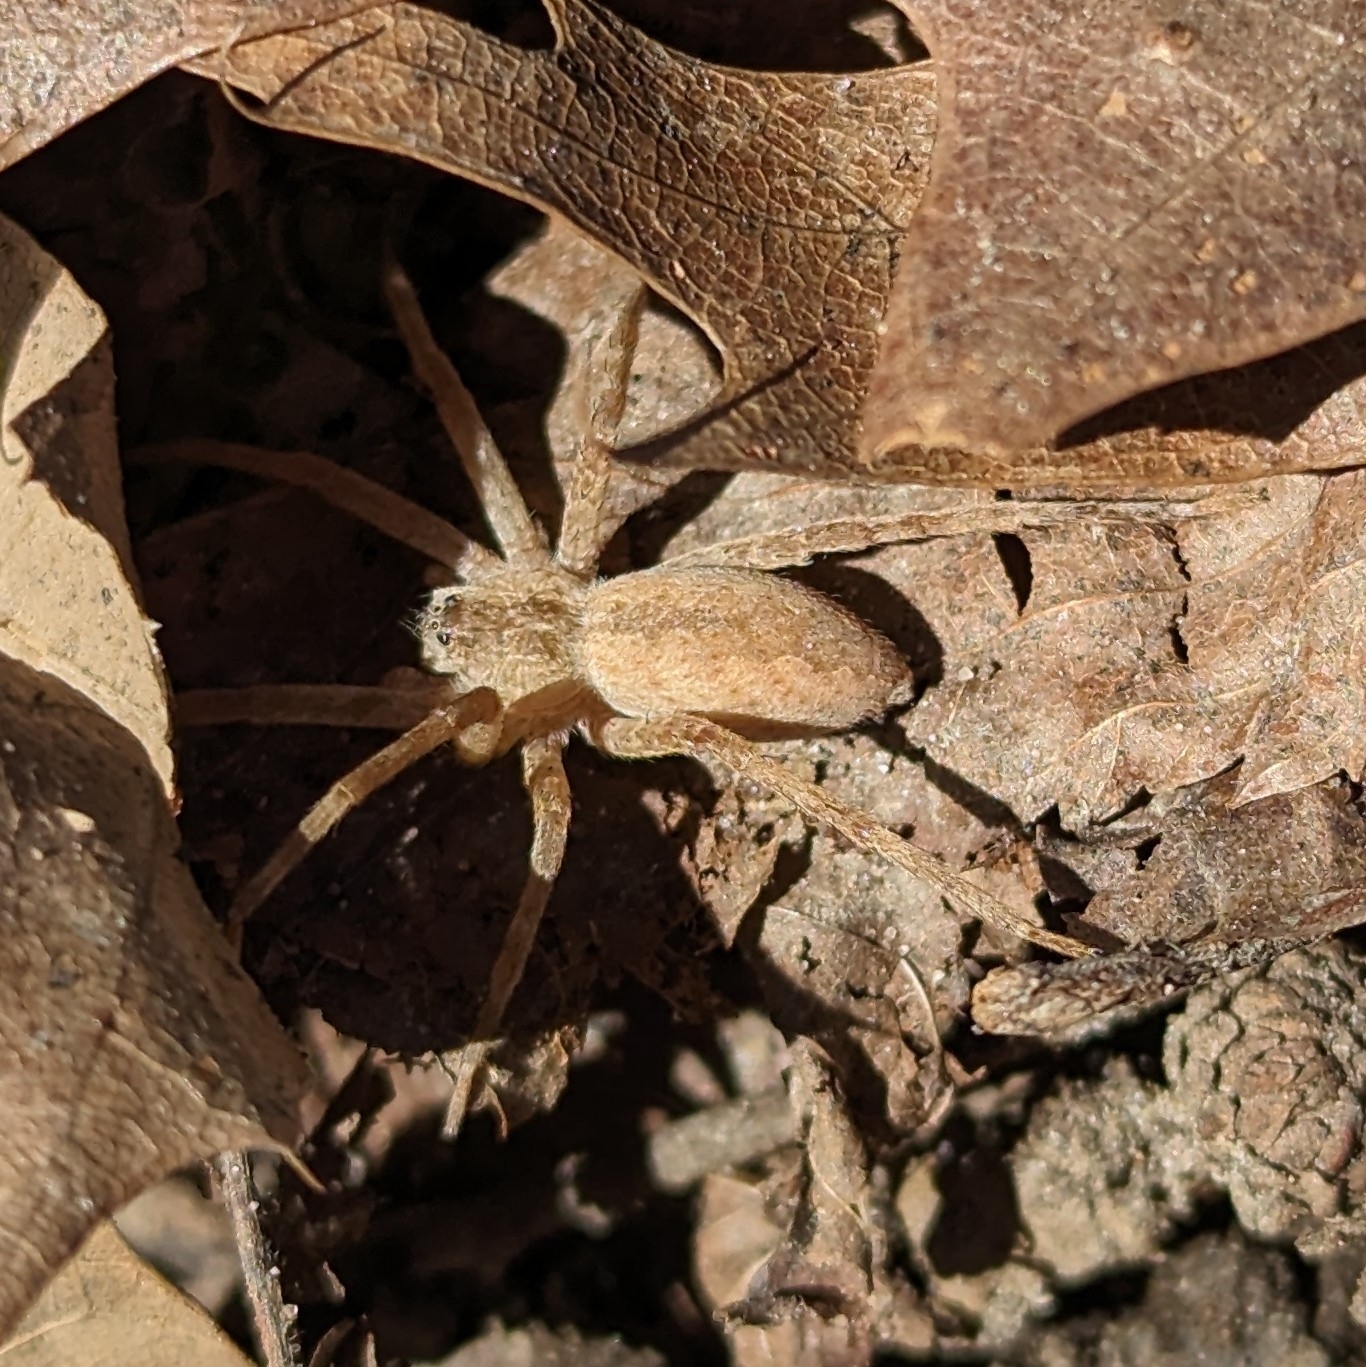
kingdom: Animalia
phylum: Arthropoda
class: Arachnida
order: Araneae
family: Pisauridae
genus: Pisaurina
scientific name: Pisaurina mira
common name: American nursery web spider
